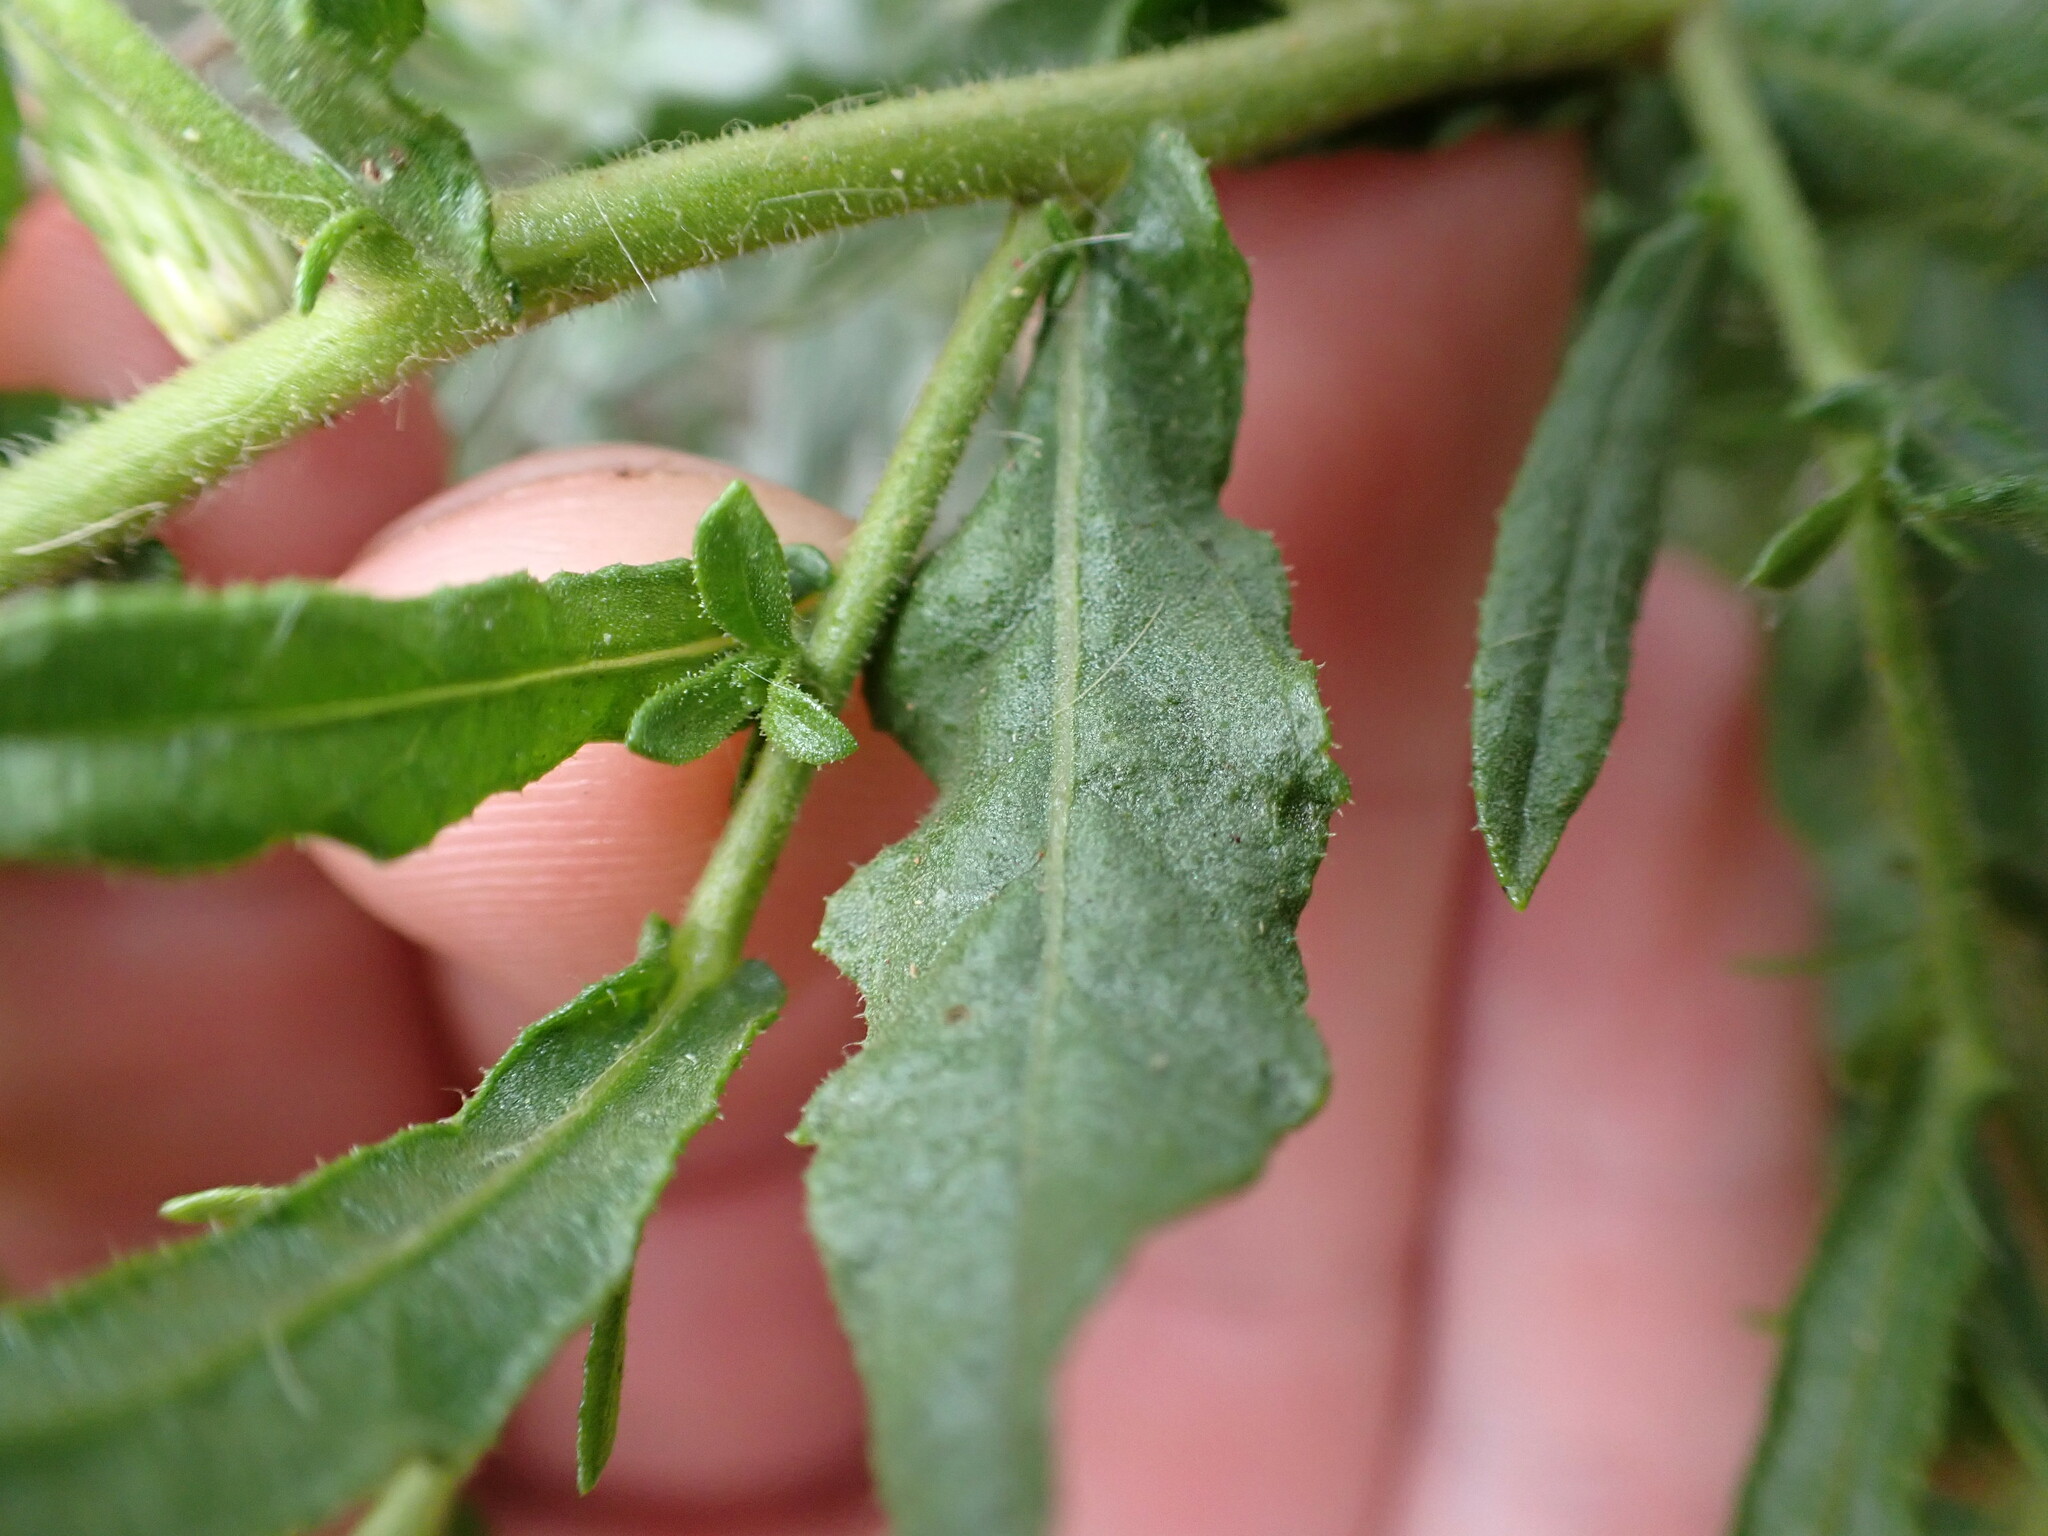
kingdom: Plantae
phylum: Tracheophyta
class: Magnoliopsida
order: Asterales
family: Asteraceae
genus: Dittrichia
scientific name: Dittrichia viscosa
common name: Woody fleabane
